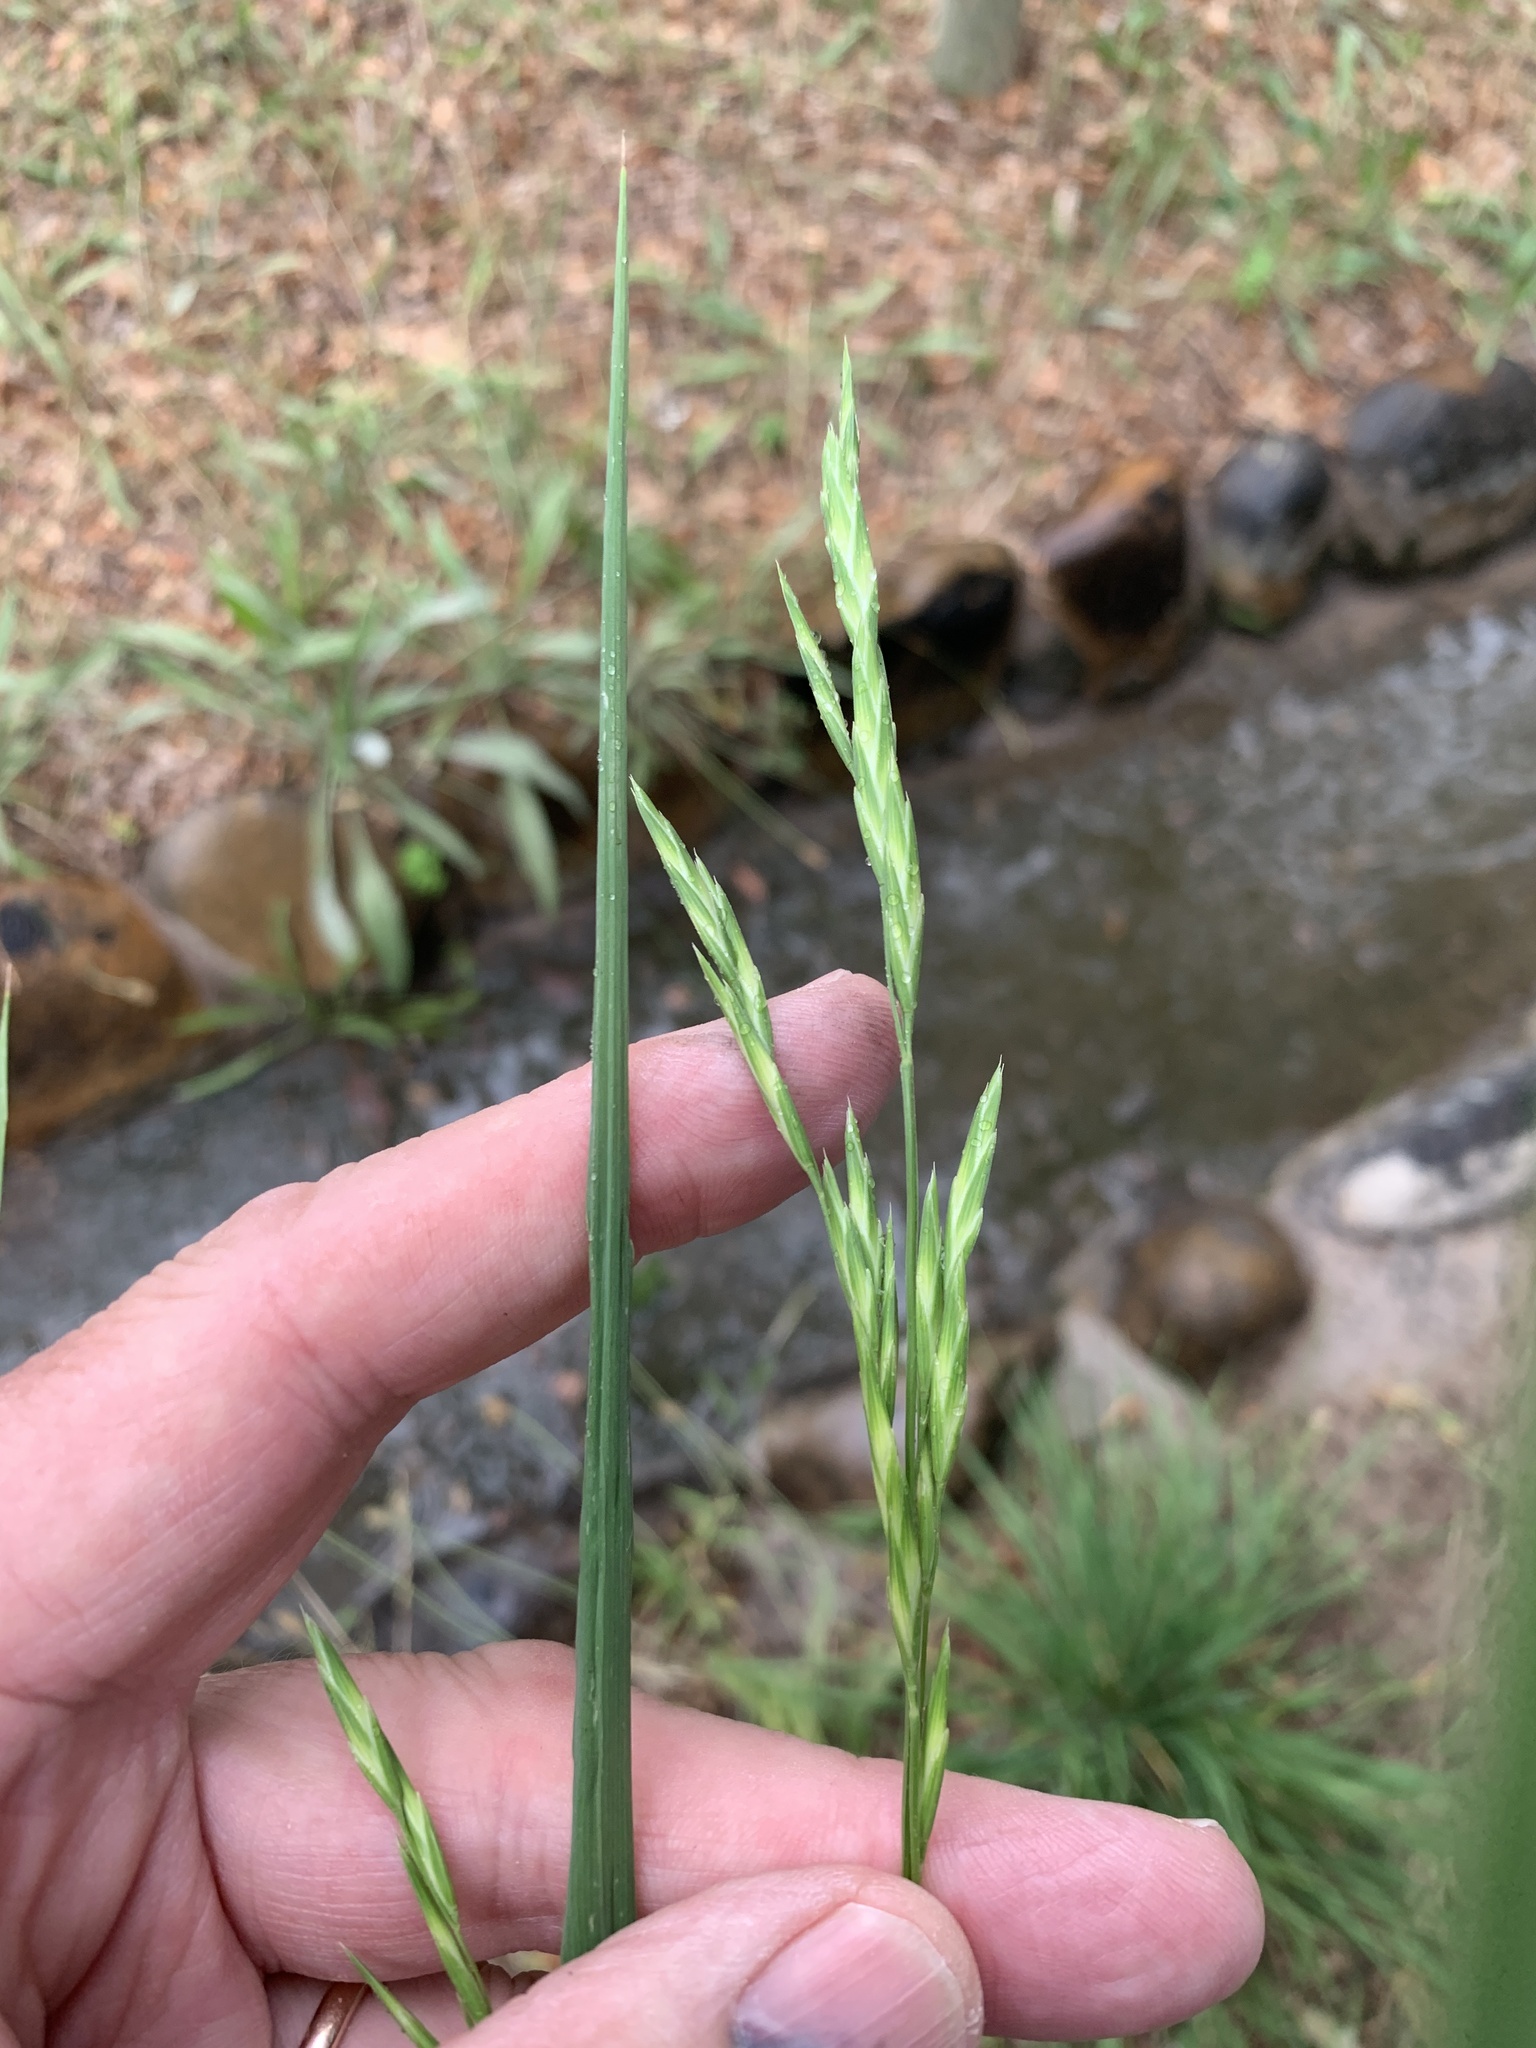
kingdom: Plantae
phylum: Tracheophyta
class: Liliopsida
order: Poales
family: Poaceae
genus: Bromus
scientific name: Bromus catharticus
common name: Rescuegrass
